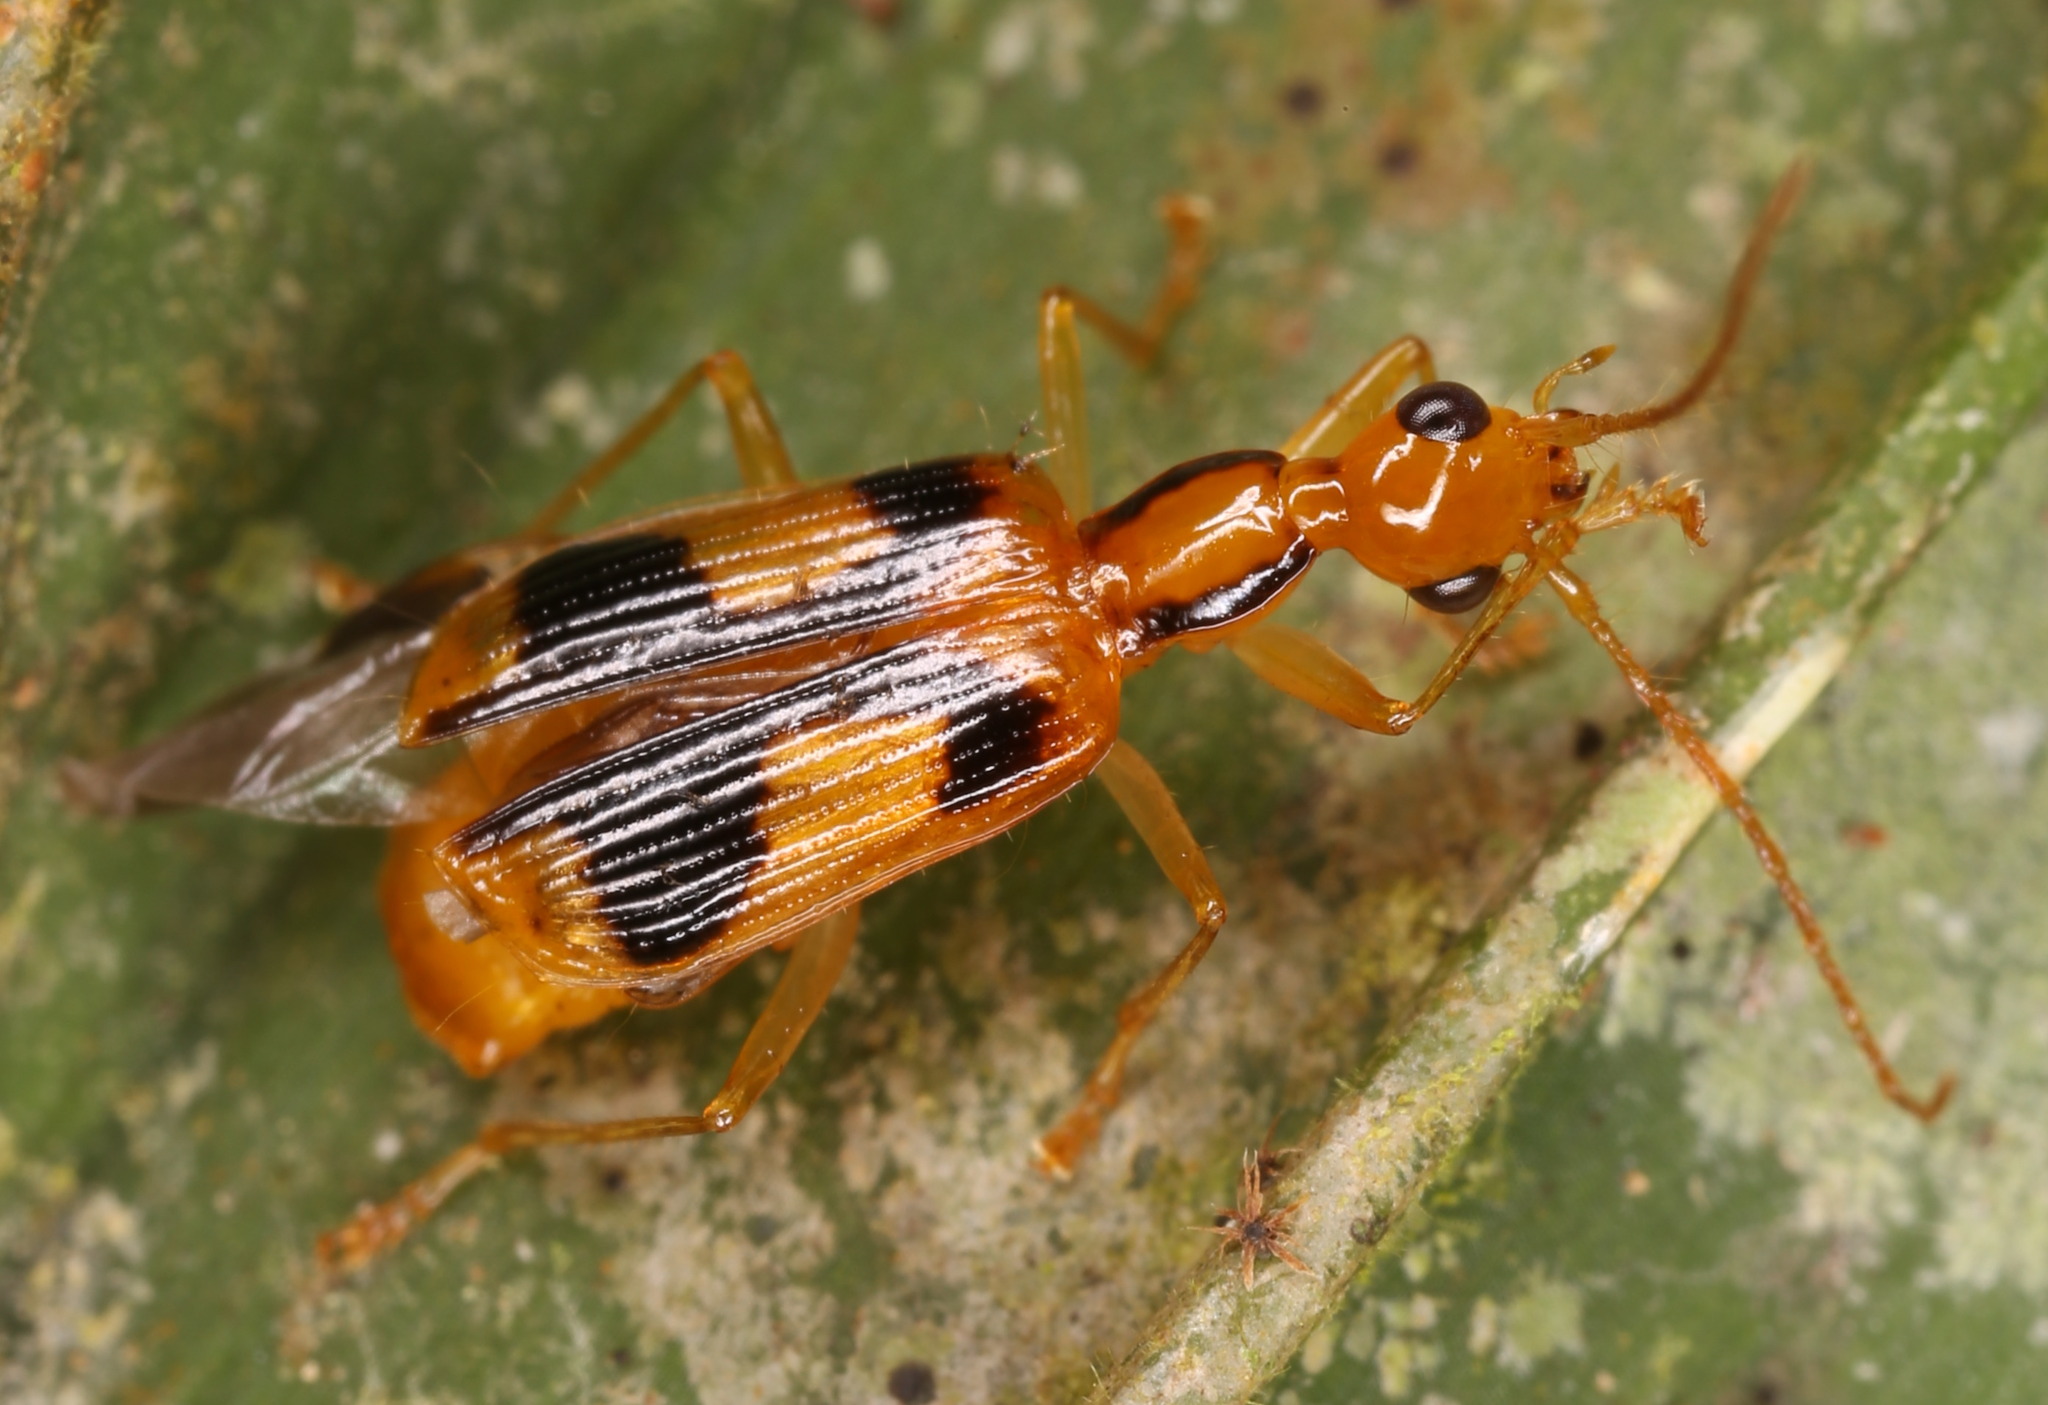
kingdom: Animalia
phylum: Arthropoda
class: Insecta
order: Coleoptera
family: Carabidae
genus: Calophaena
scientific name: Calophaena costaricensis
